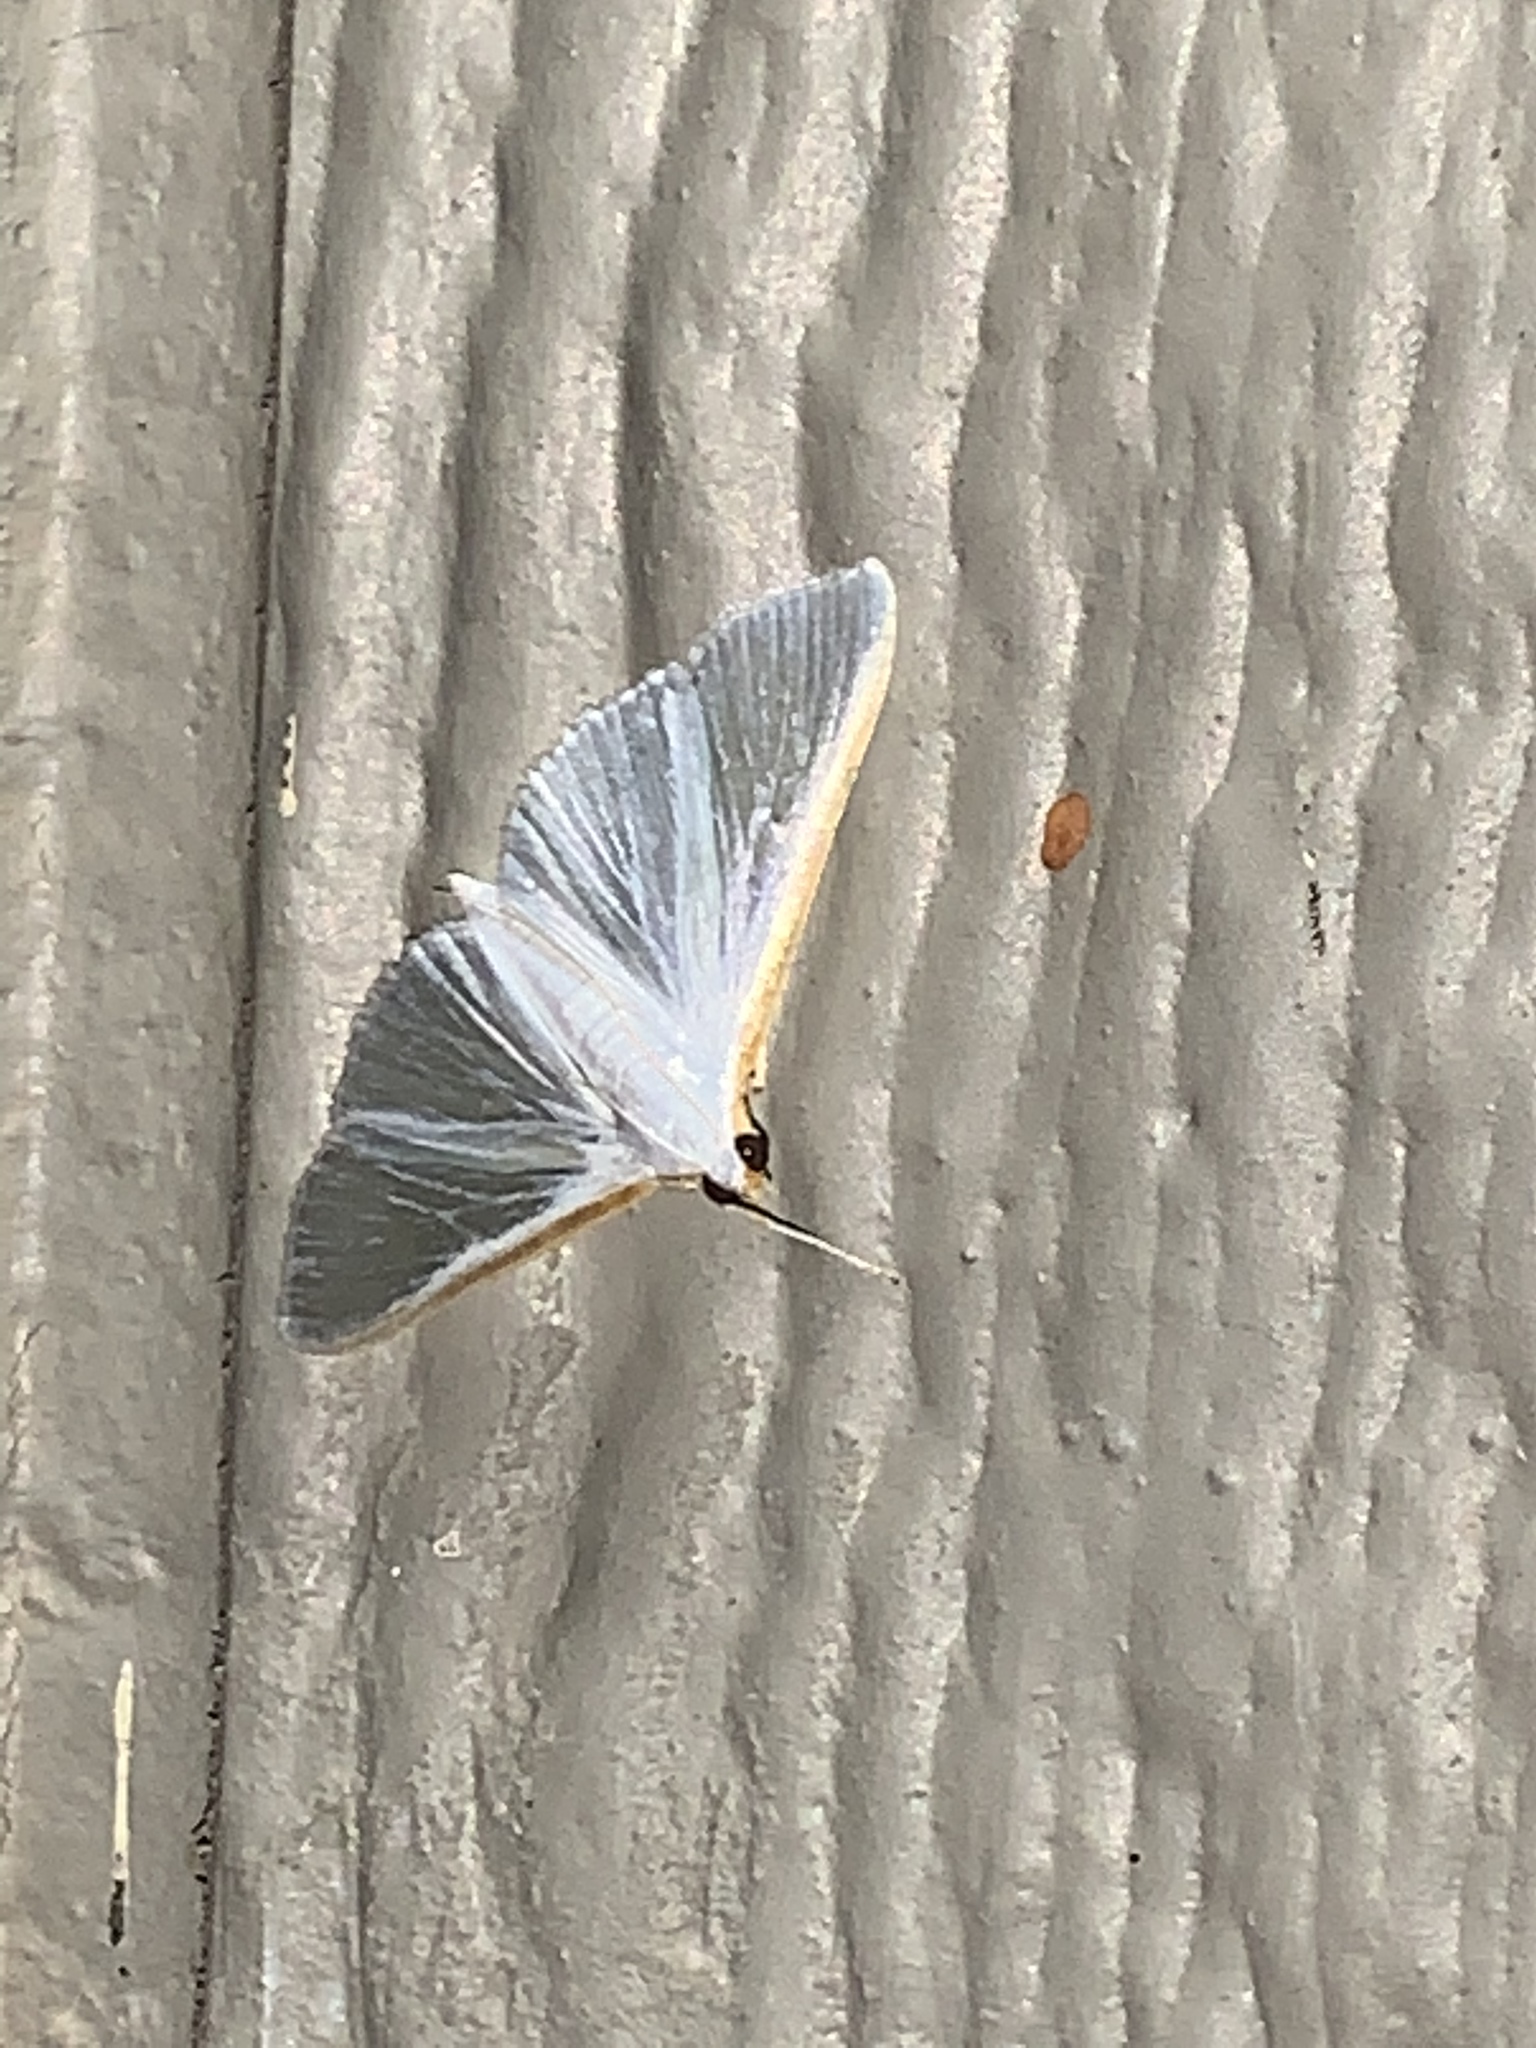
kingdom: Animalia
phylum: Arthropoda
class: Insecta
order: Lepidoptera
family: Crambidae
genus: Diaphania
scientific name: Diaphania costata
